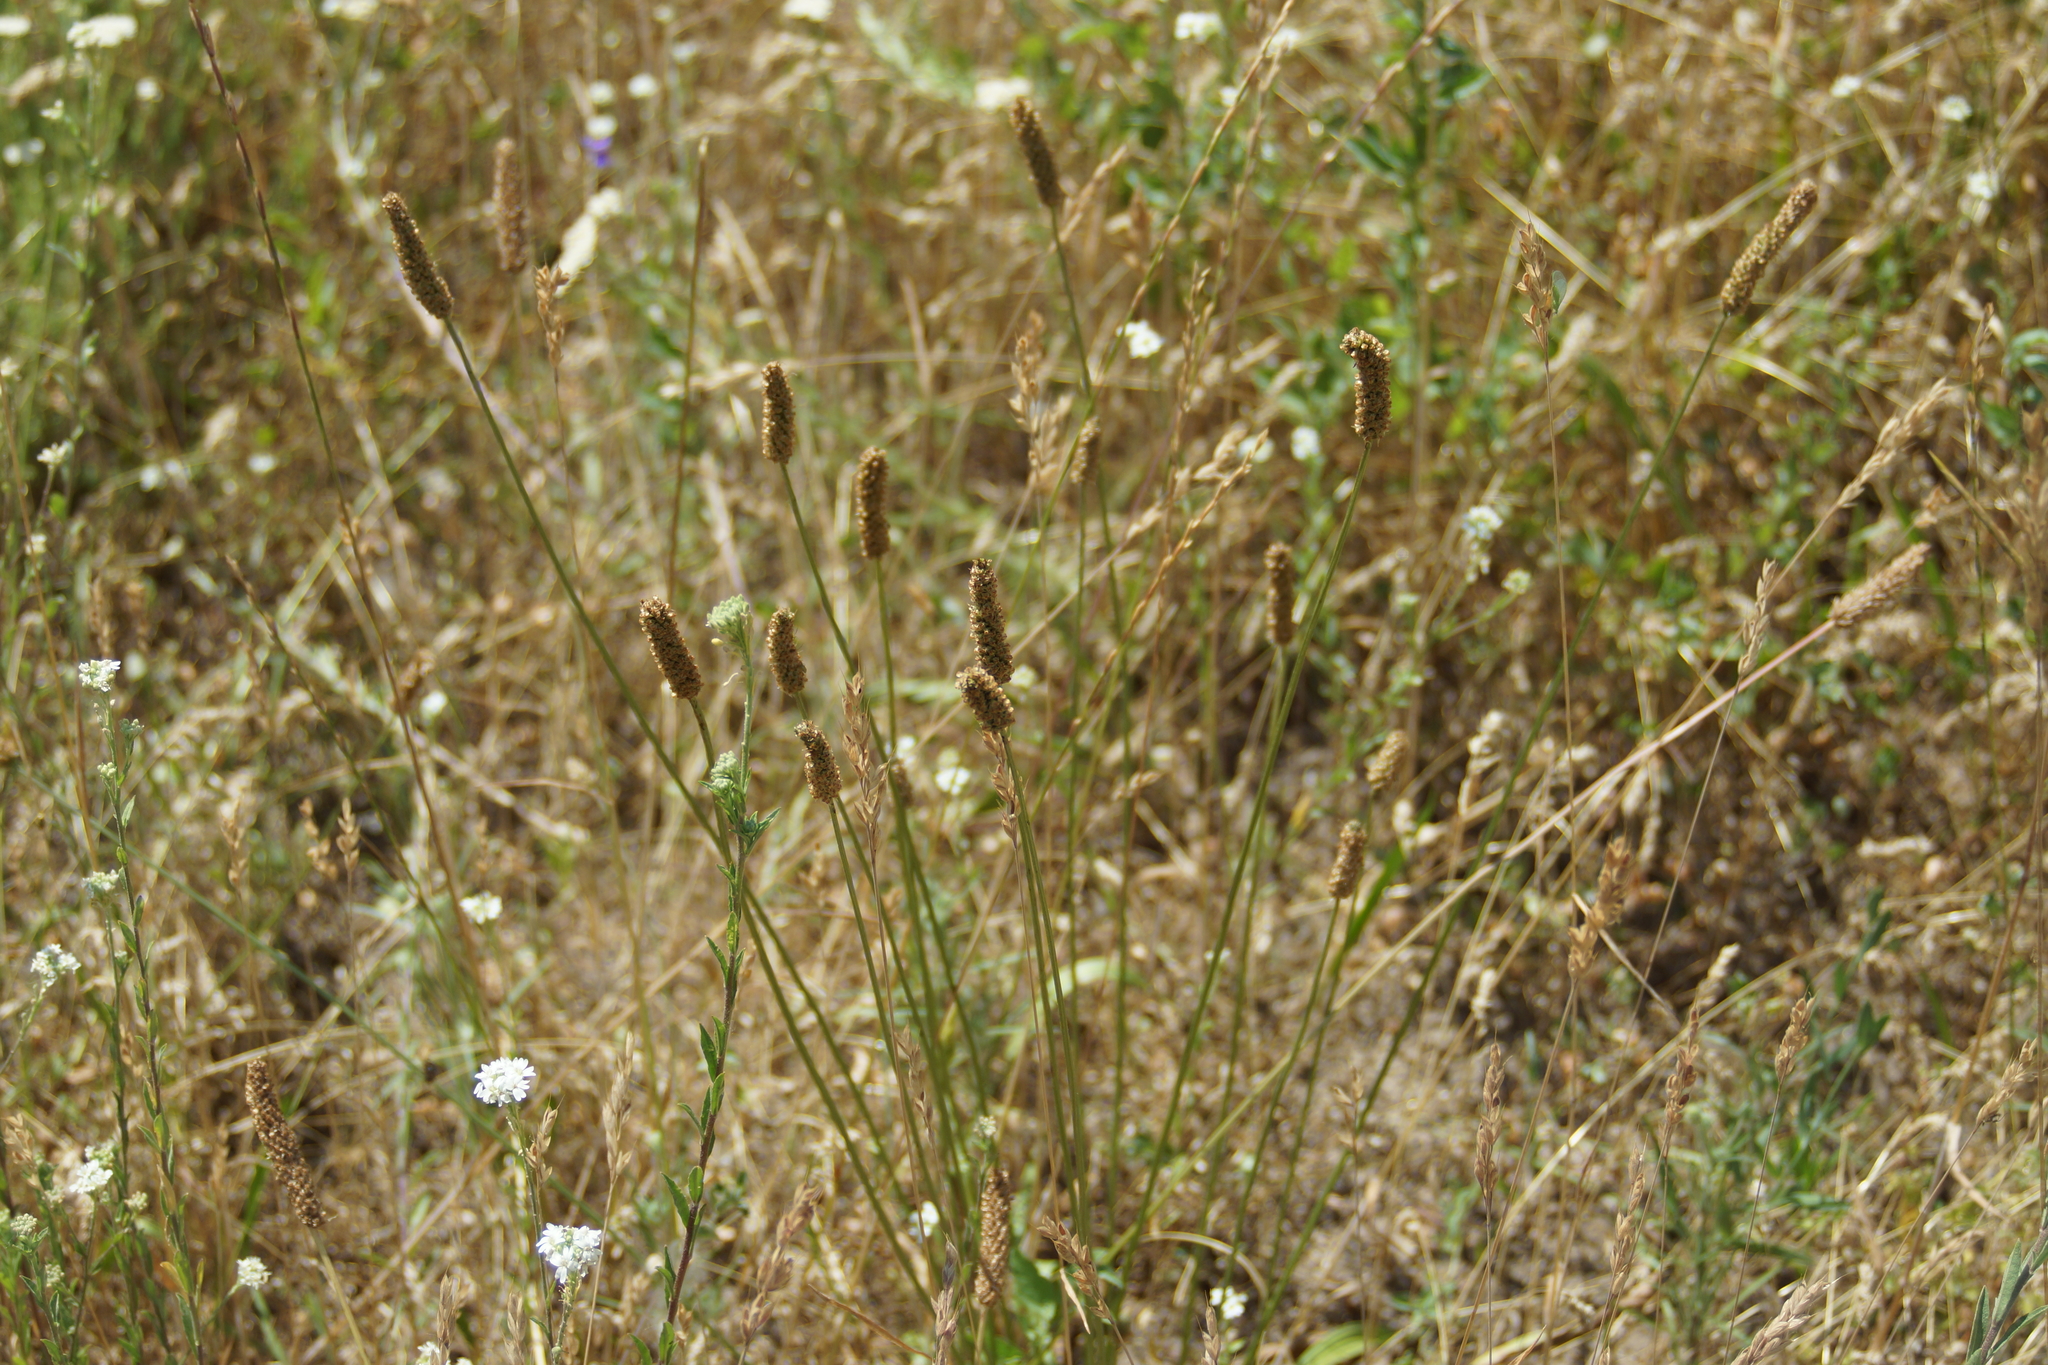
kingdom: Plantae
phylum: Tracheophyta
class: Magnoliopsida
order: Lamiales
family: Plantaginaceae
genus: Plantago
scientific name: Plantago lanceolata
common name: Ribwort plantain
